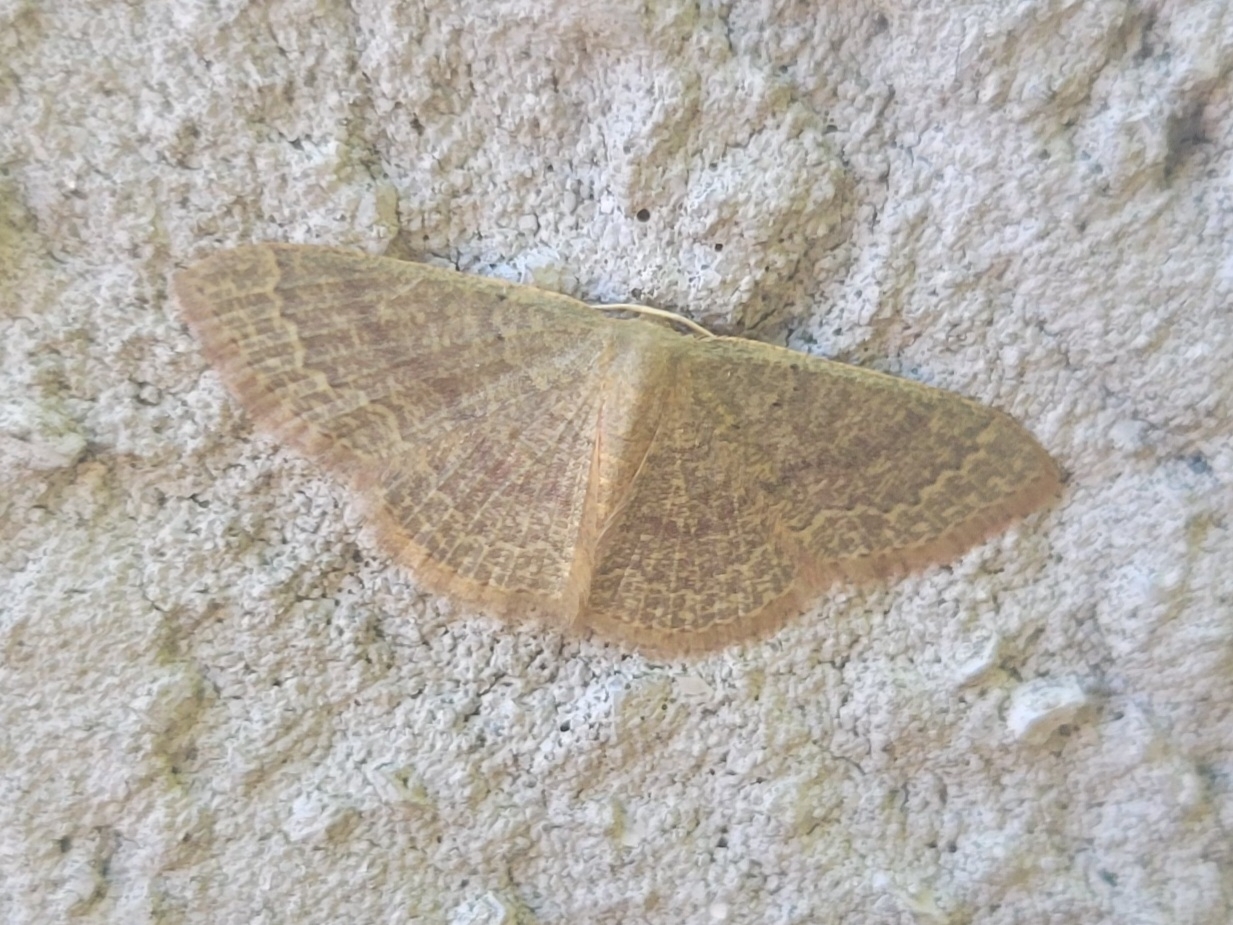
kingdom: Animalia
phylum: Arthropoda
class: Insecta
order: Lepidoptera
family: Geometridae
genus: Pleuroprucha
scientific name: Pleuroprucha insulsaria
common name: Common tan wave
